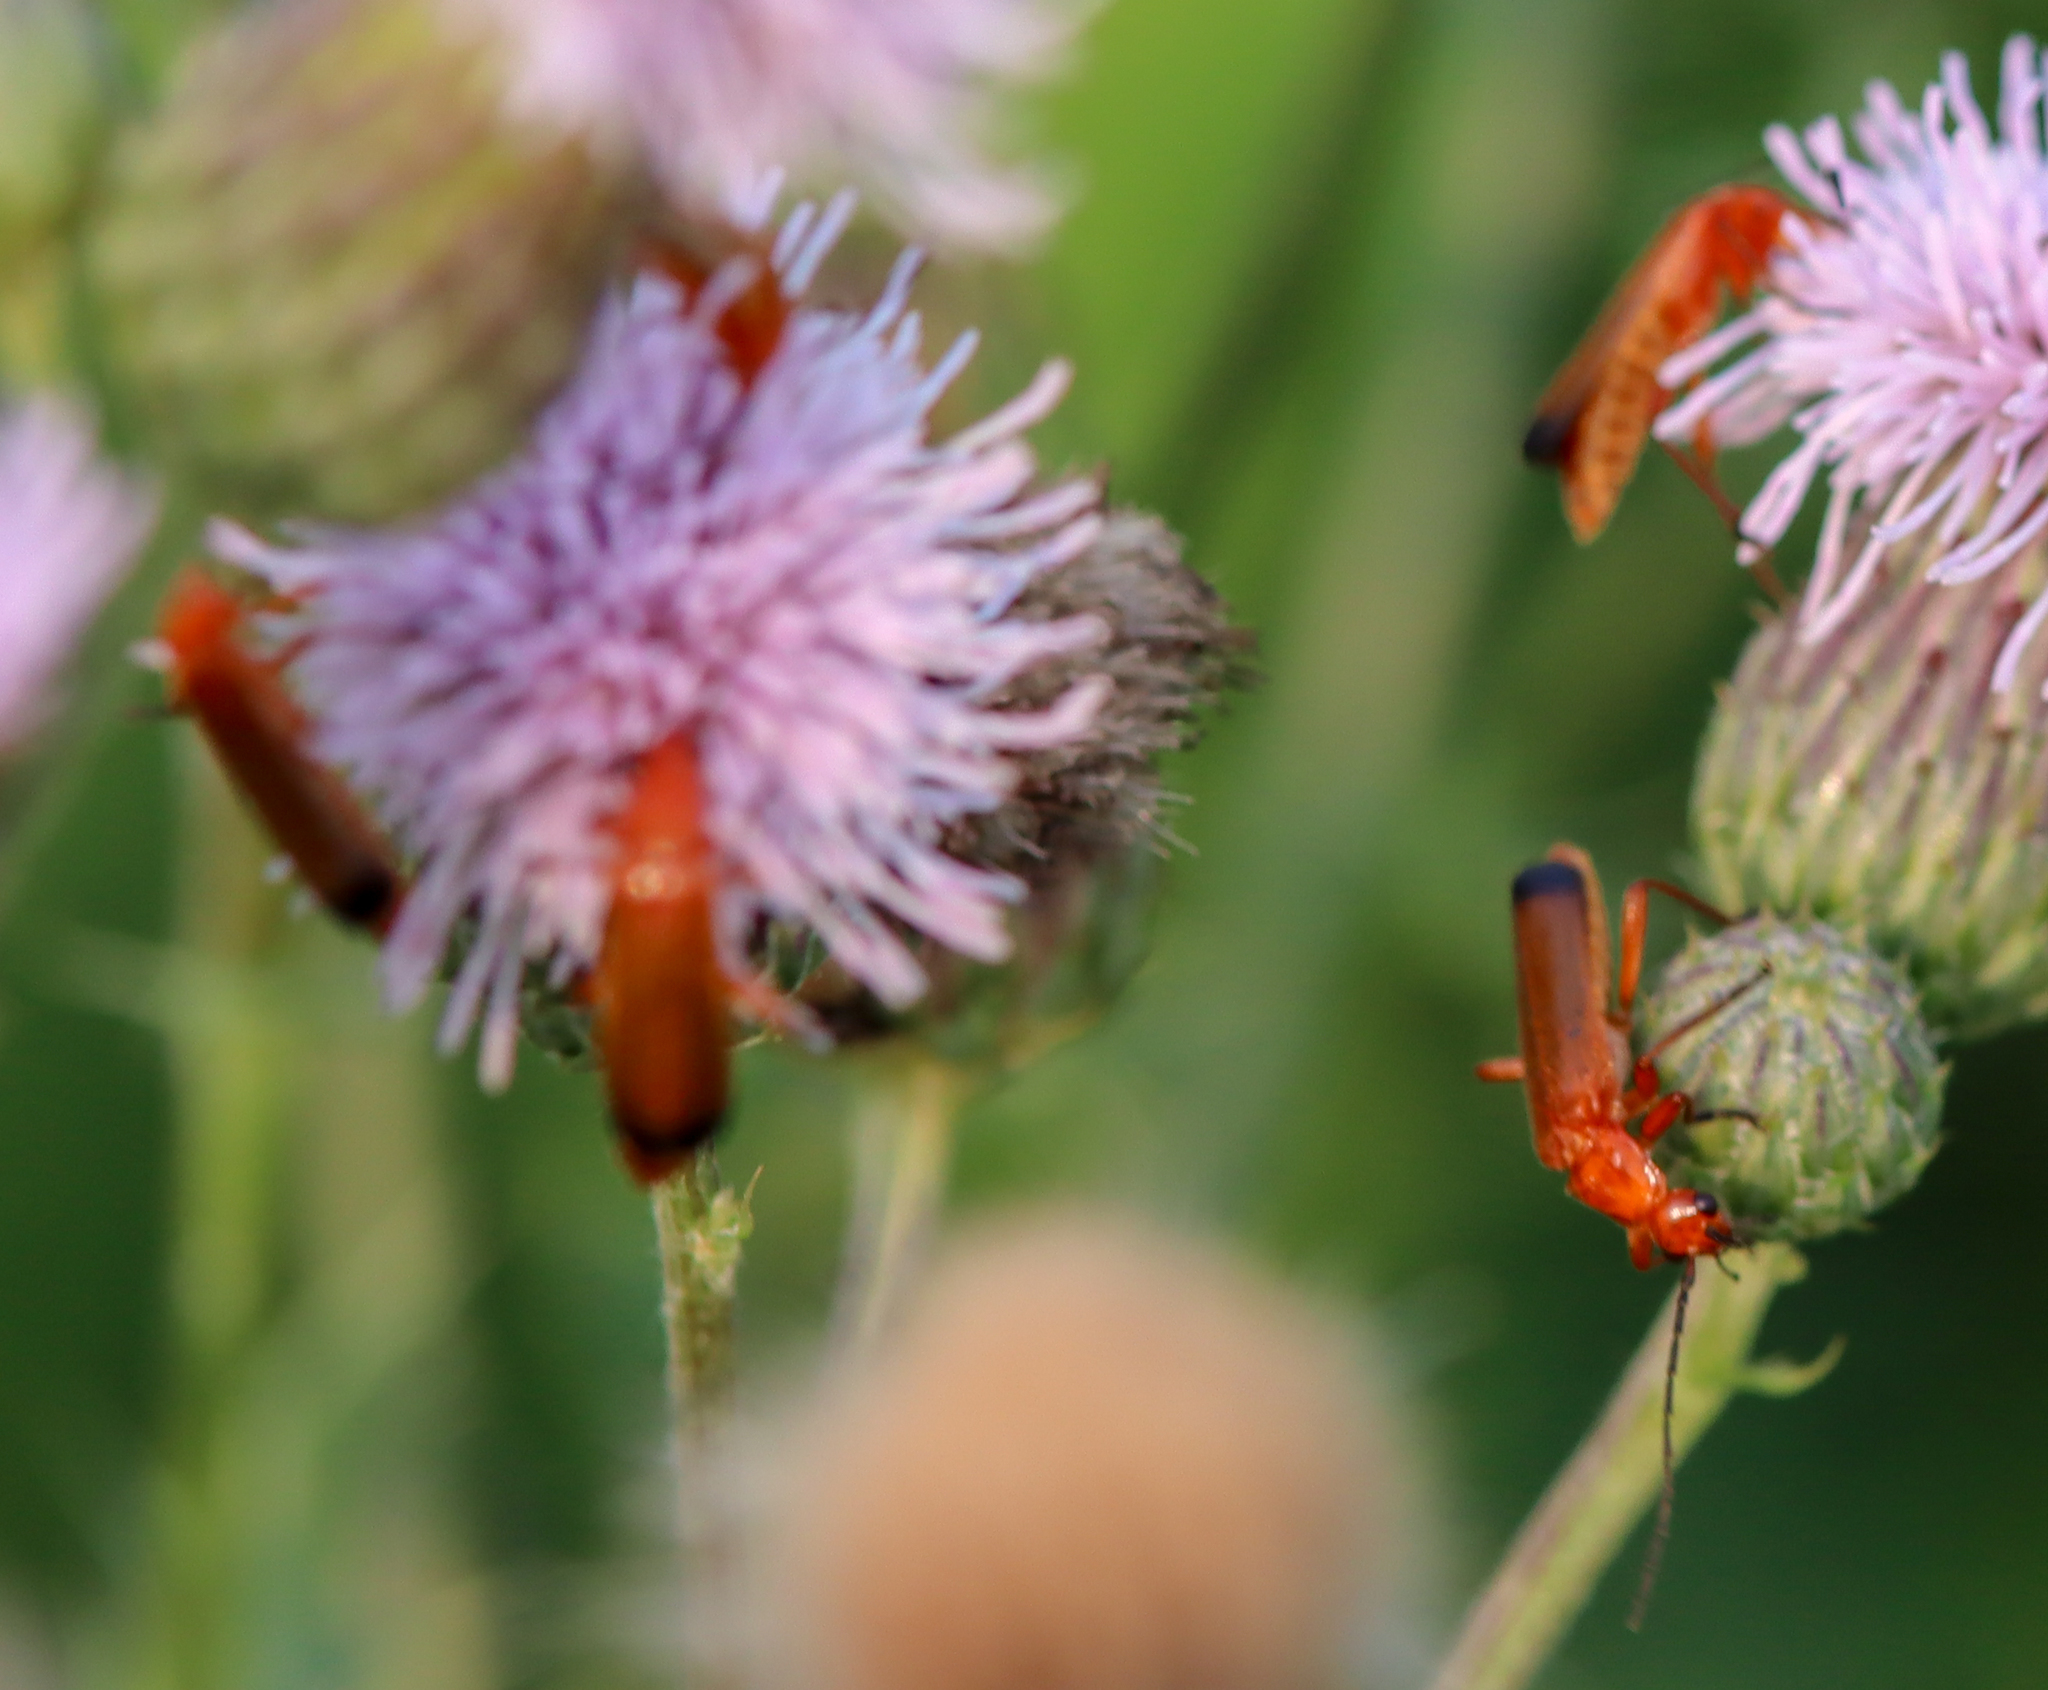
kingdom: Animalia
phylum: Arthropoda
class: Insecta
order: Coleoptera
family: Cantharidae
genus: Rhagonycha
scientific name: Rhagonycha fulva
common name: Common red soldier beetle
